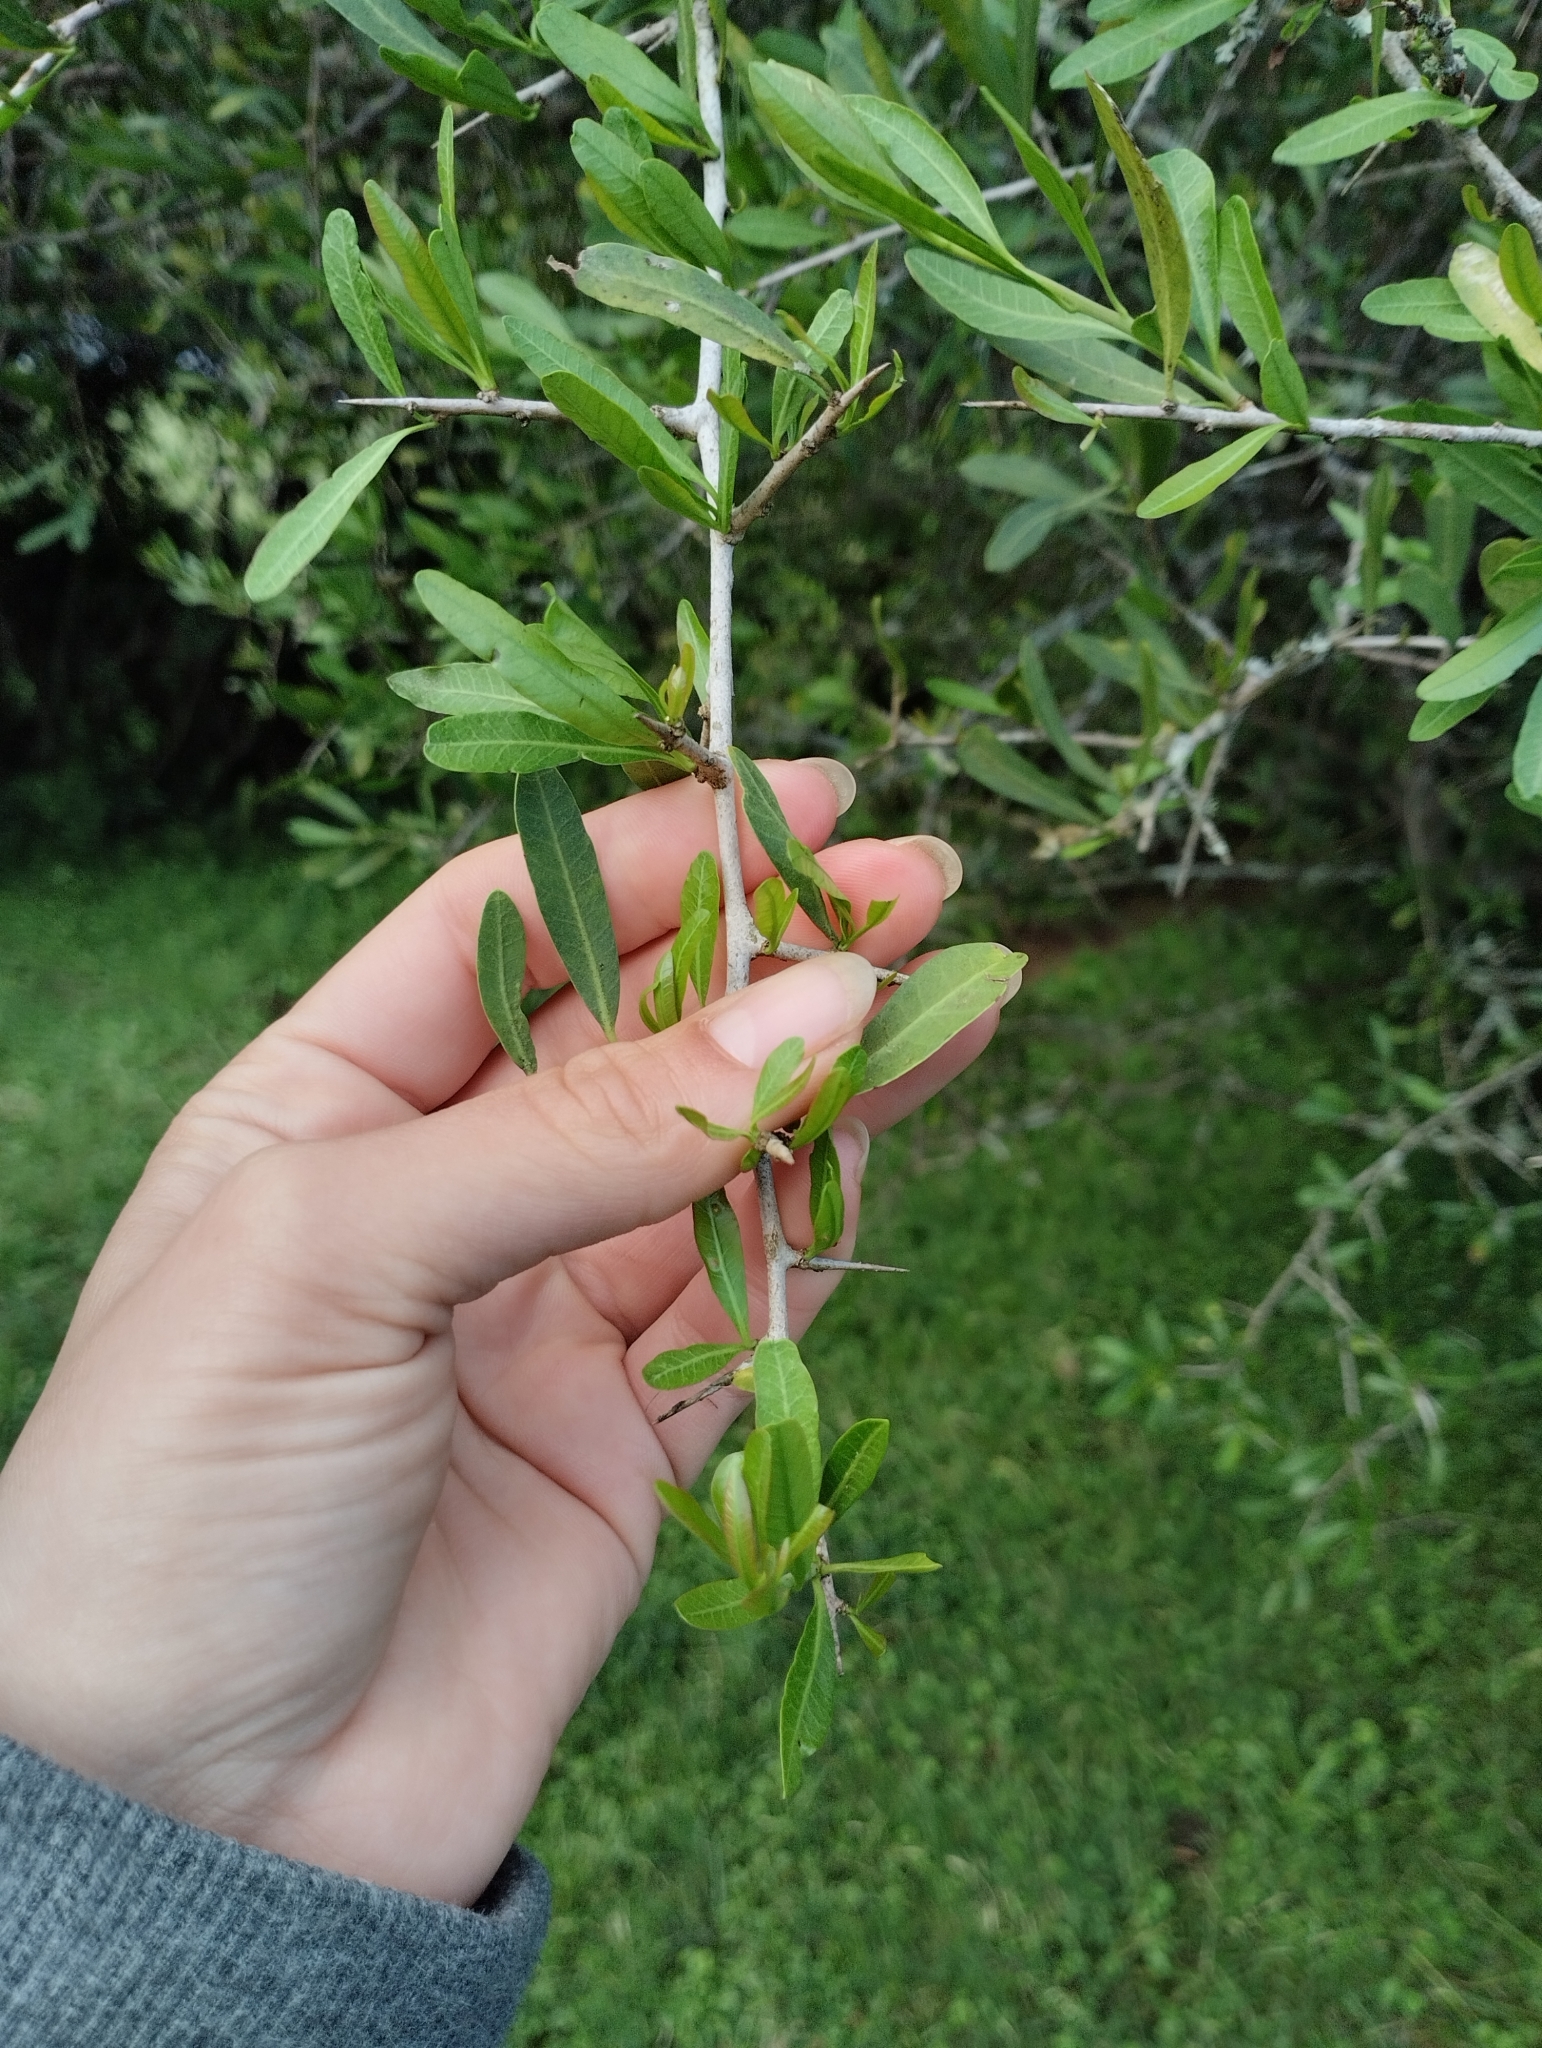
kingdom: Plantae
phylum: Tracheophyta
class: Magnoliopsida
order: Sapindales
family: Anacardiaceae
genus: Schinus
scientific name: Schinus longifolia
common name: Longleaf peppertree
